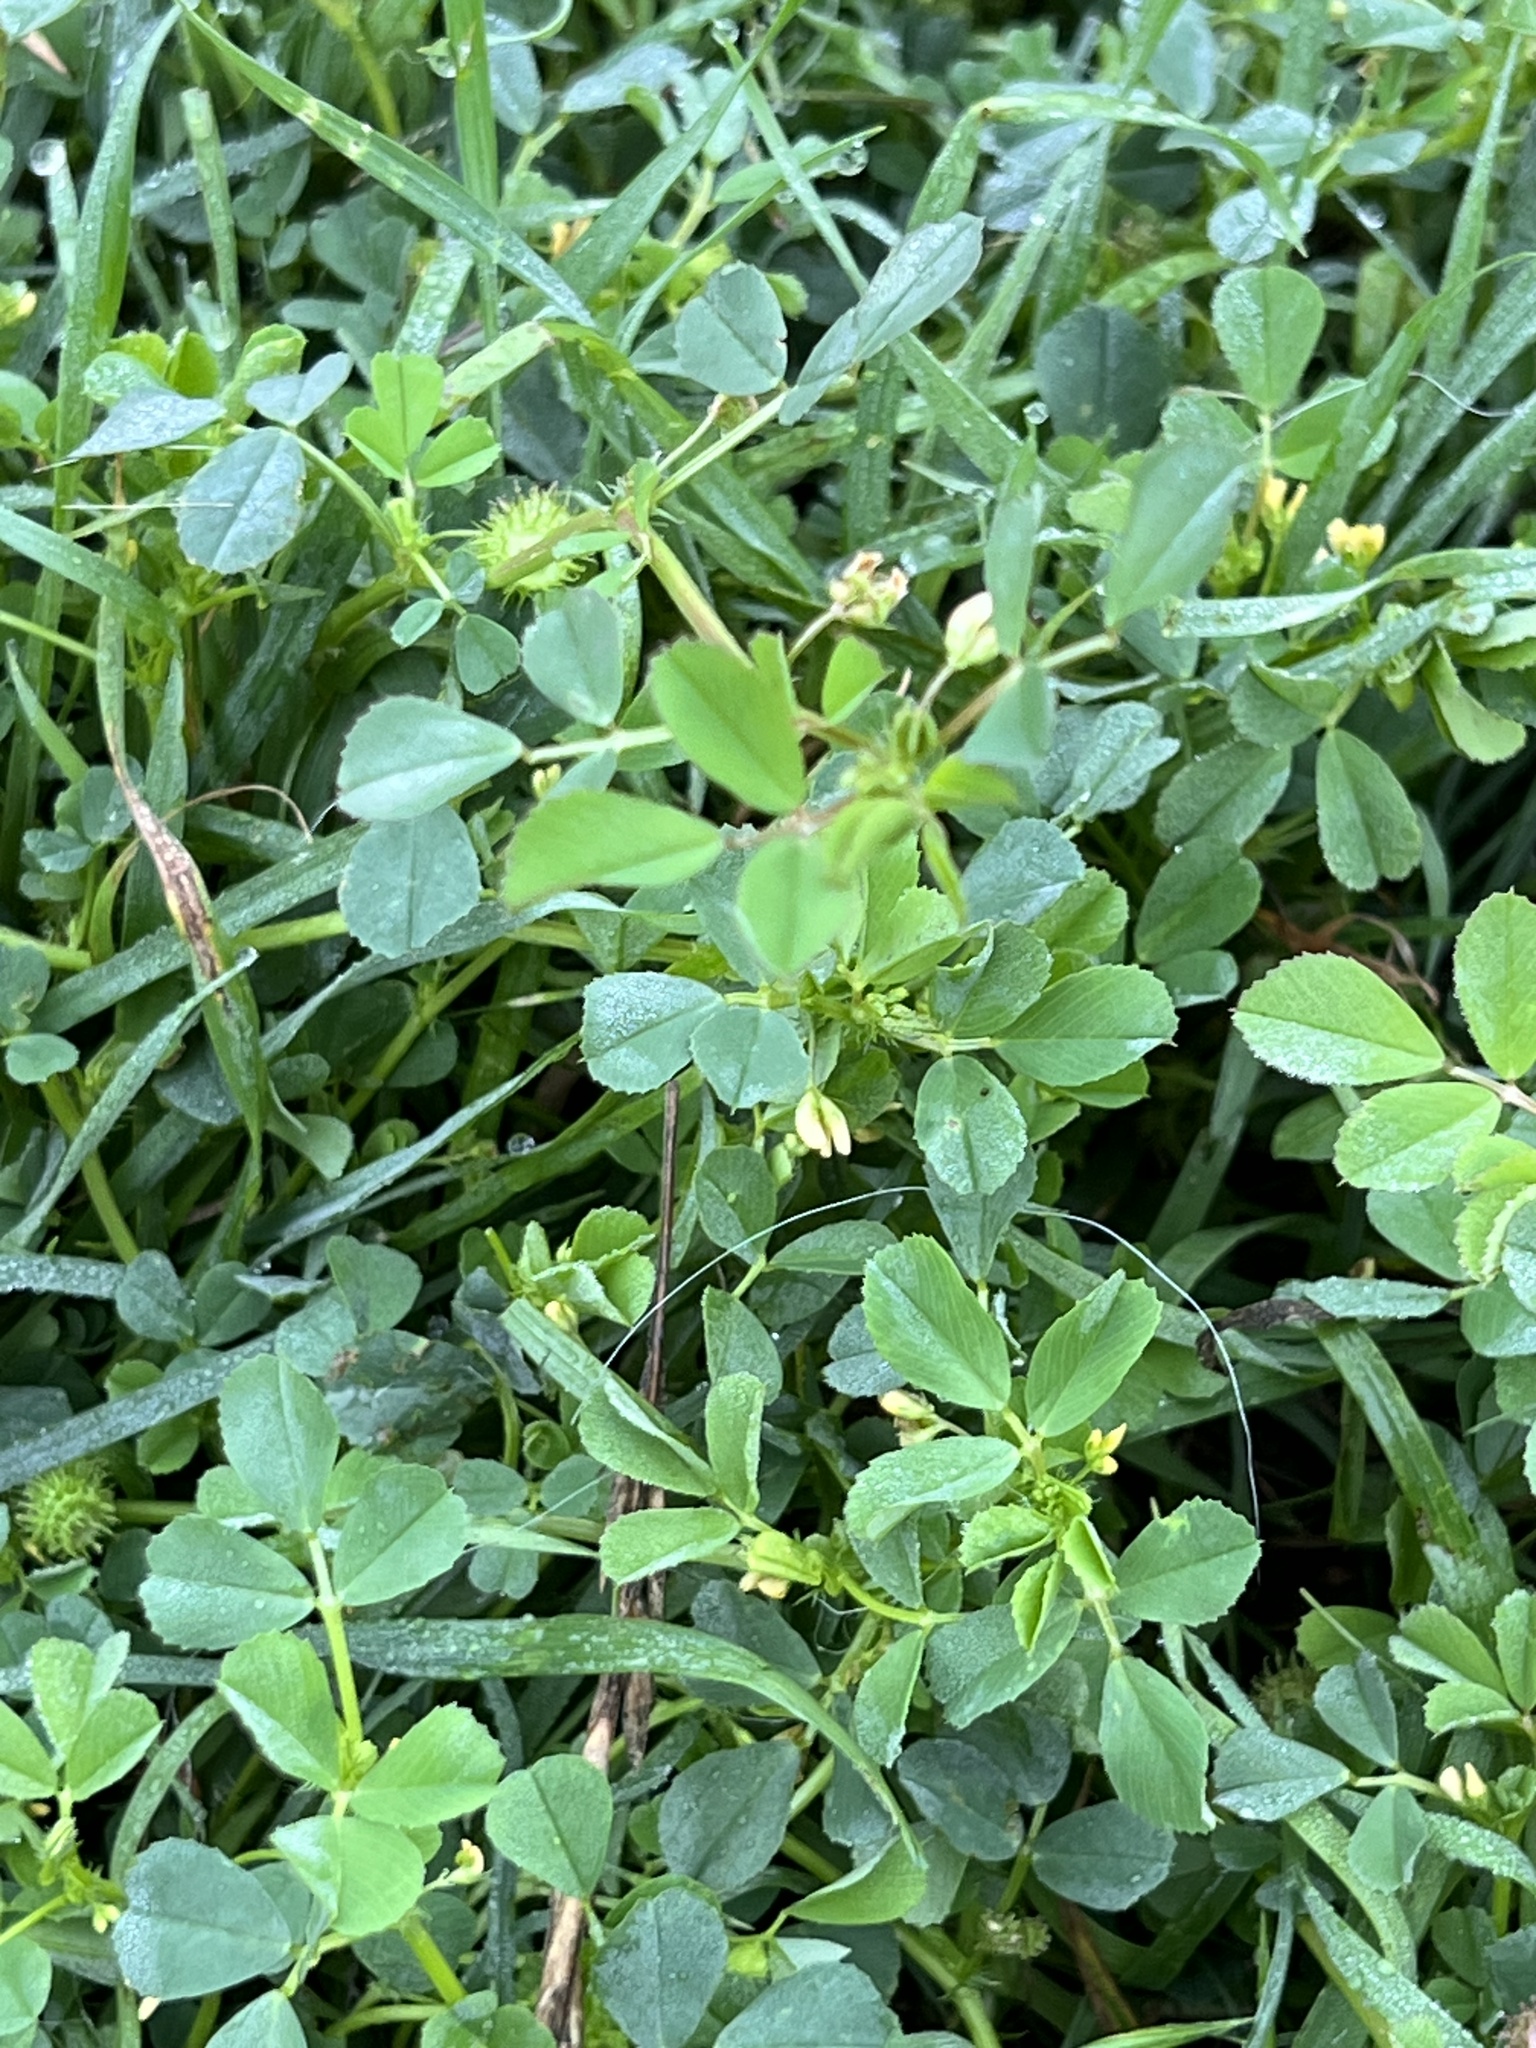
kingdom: Plantae
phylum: Tracheophyta
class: Magnoliopsida
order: Fabales
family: Fabaceae
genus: Medicago
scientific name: Medicago polymorpha
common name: Burclover
